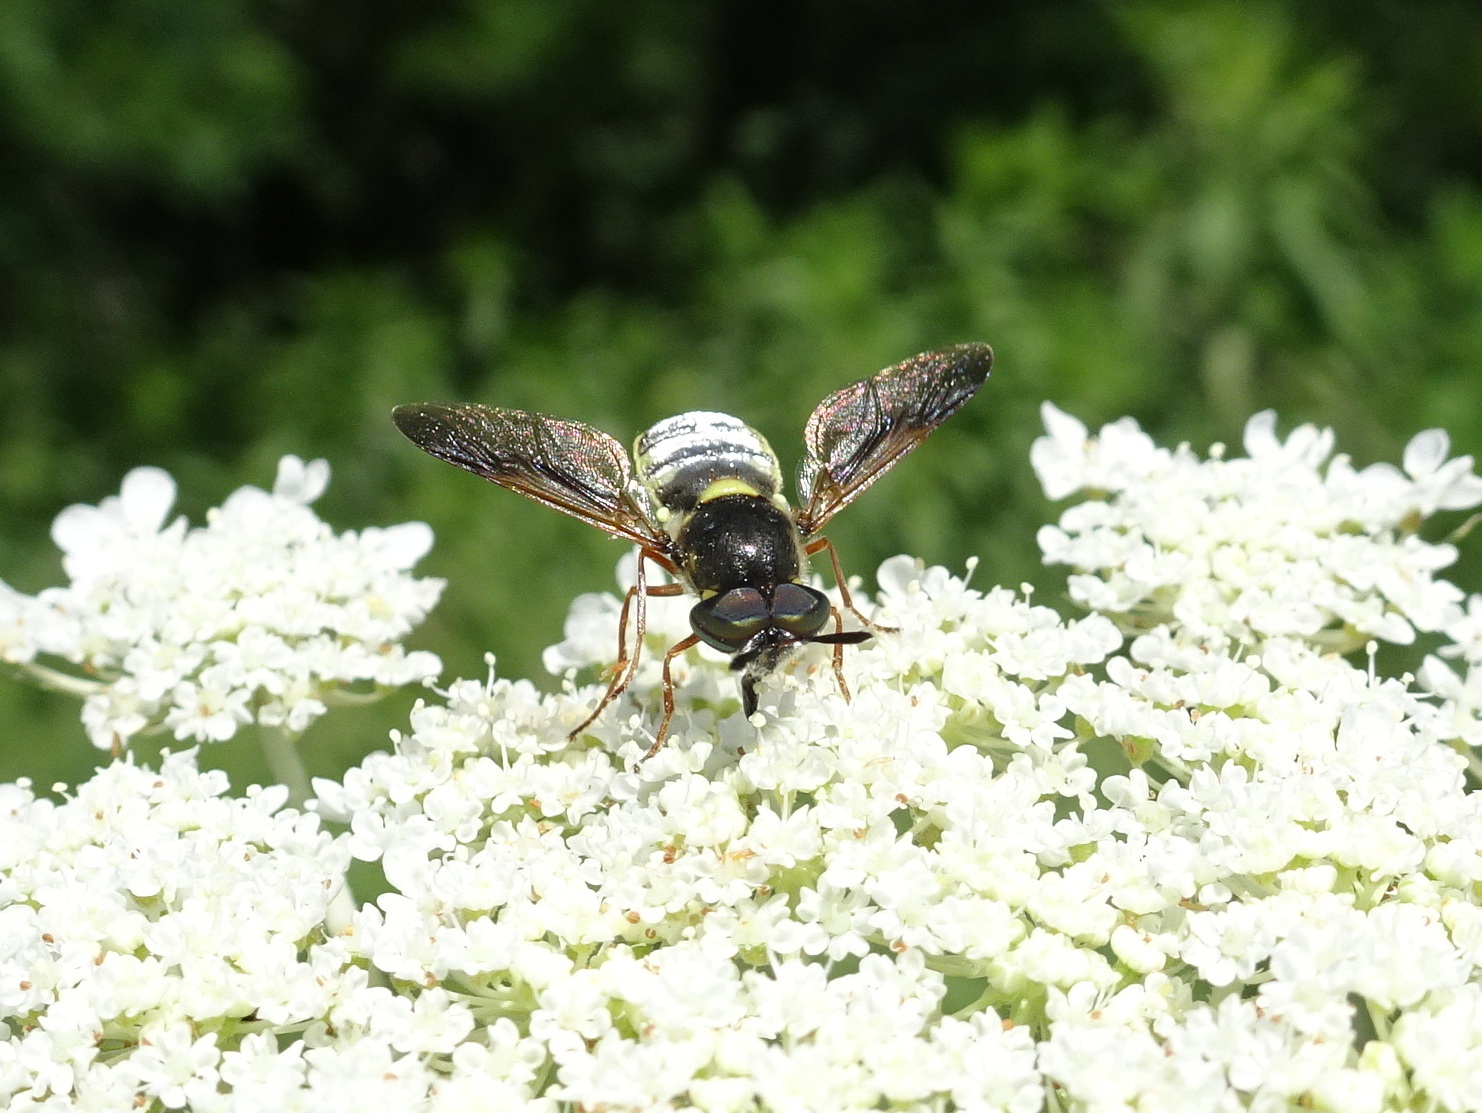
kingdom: Animalia
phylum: Arthropoda
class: Insecta
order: Diptera
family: Stratiomyidae
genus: Hoplitimyia
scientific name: Hoplitimyia constans
